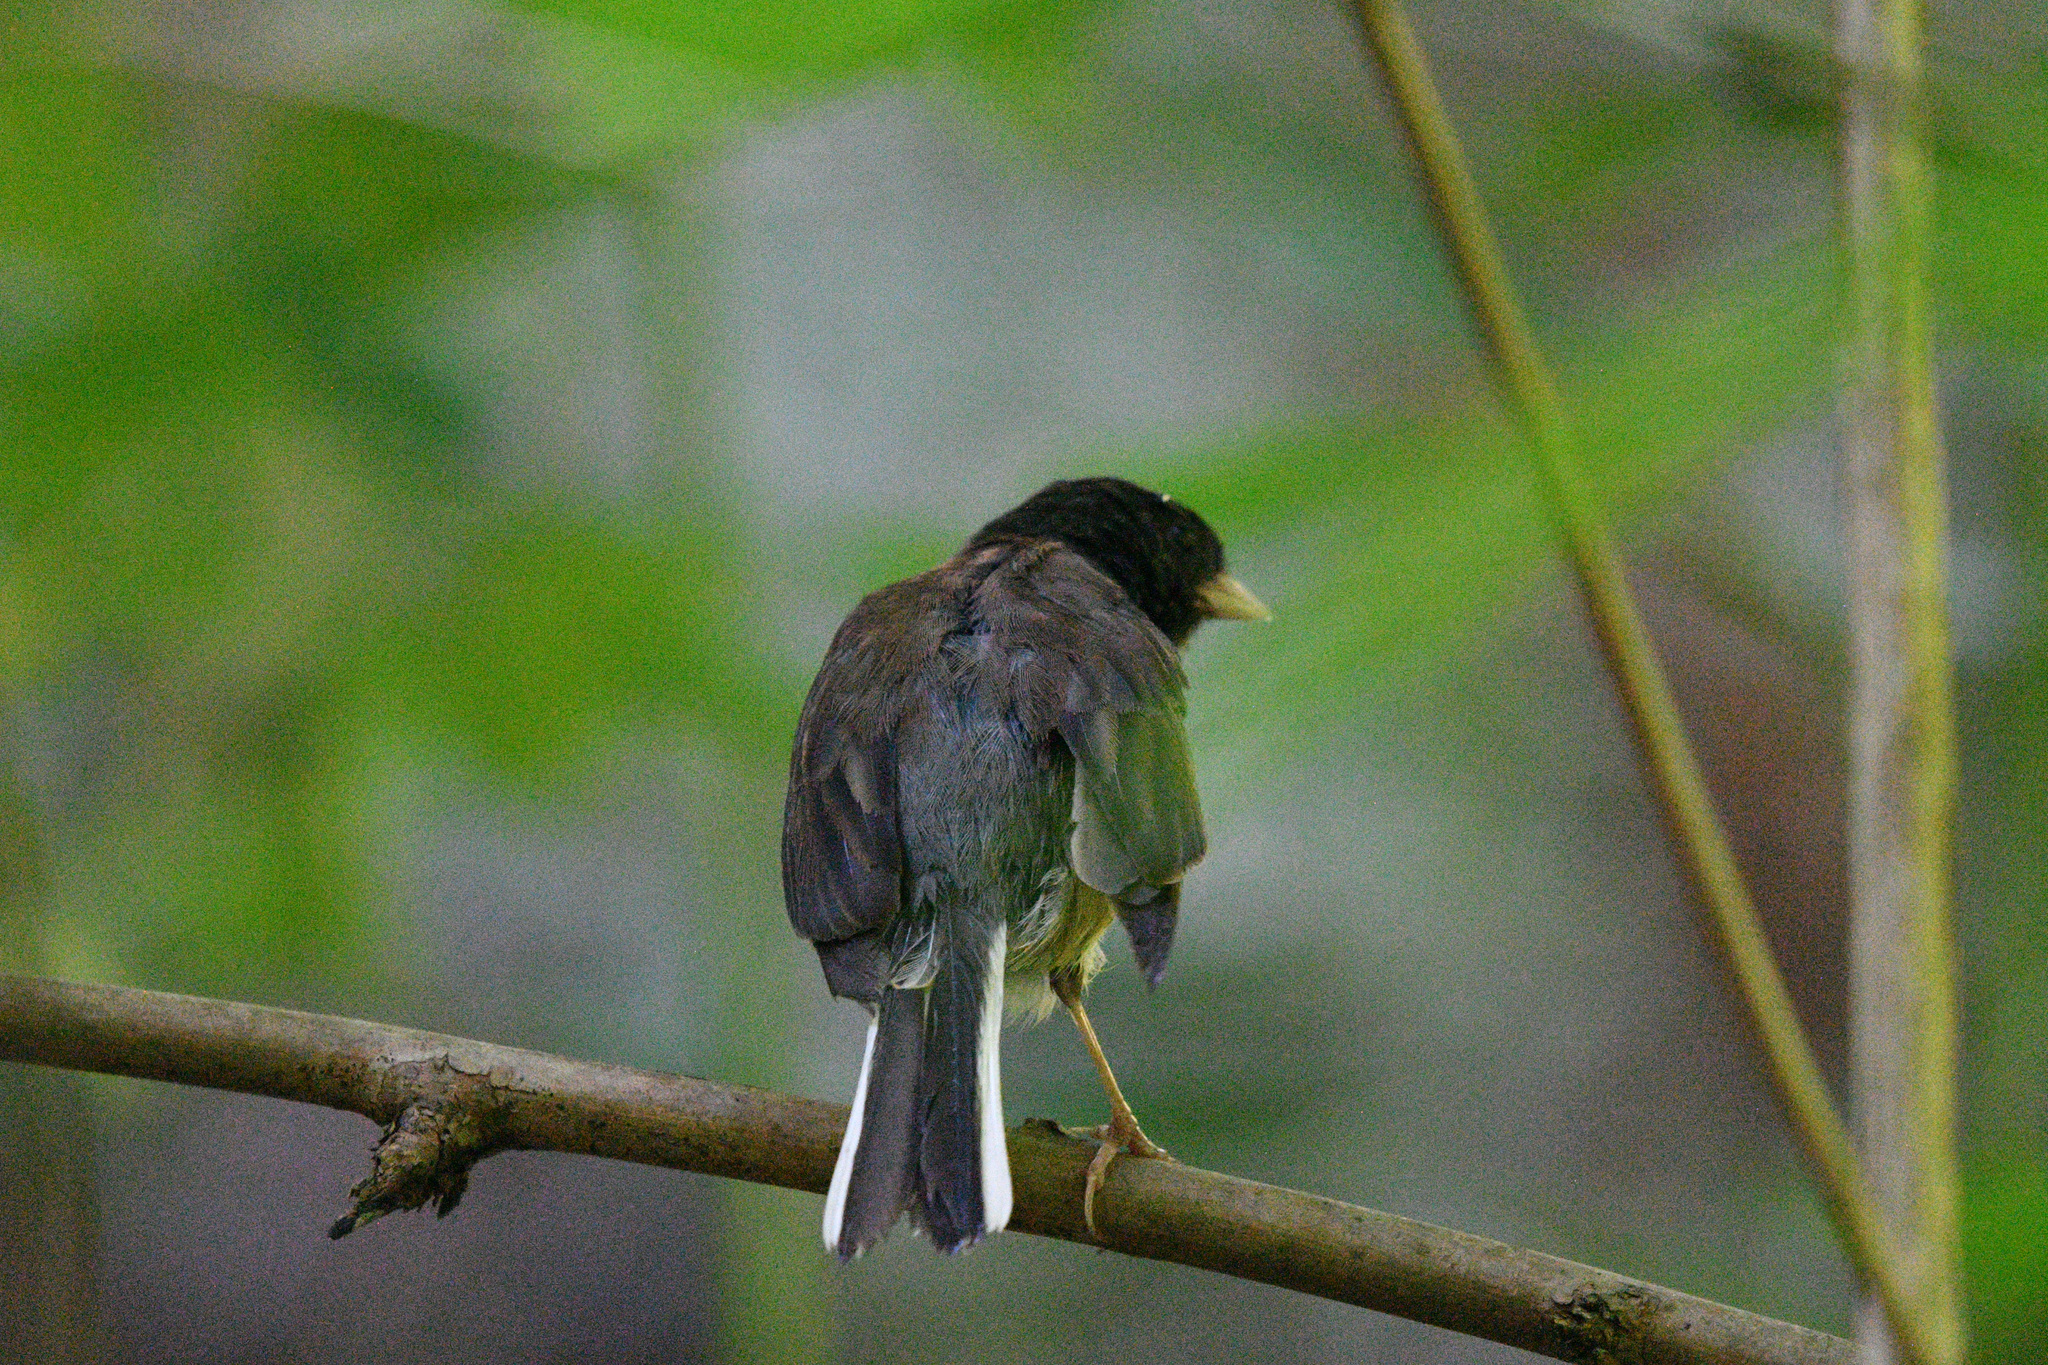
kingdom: Animalia
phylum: Chordata
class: Aves
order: Passeriformes
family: Passerellidae
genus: Junco
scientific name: Junco hyemalis
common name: Dark-eyed junco
